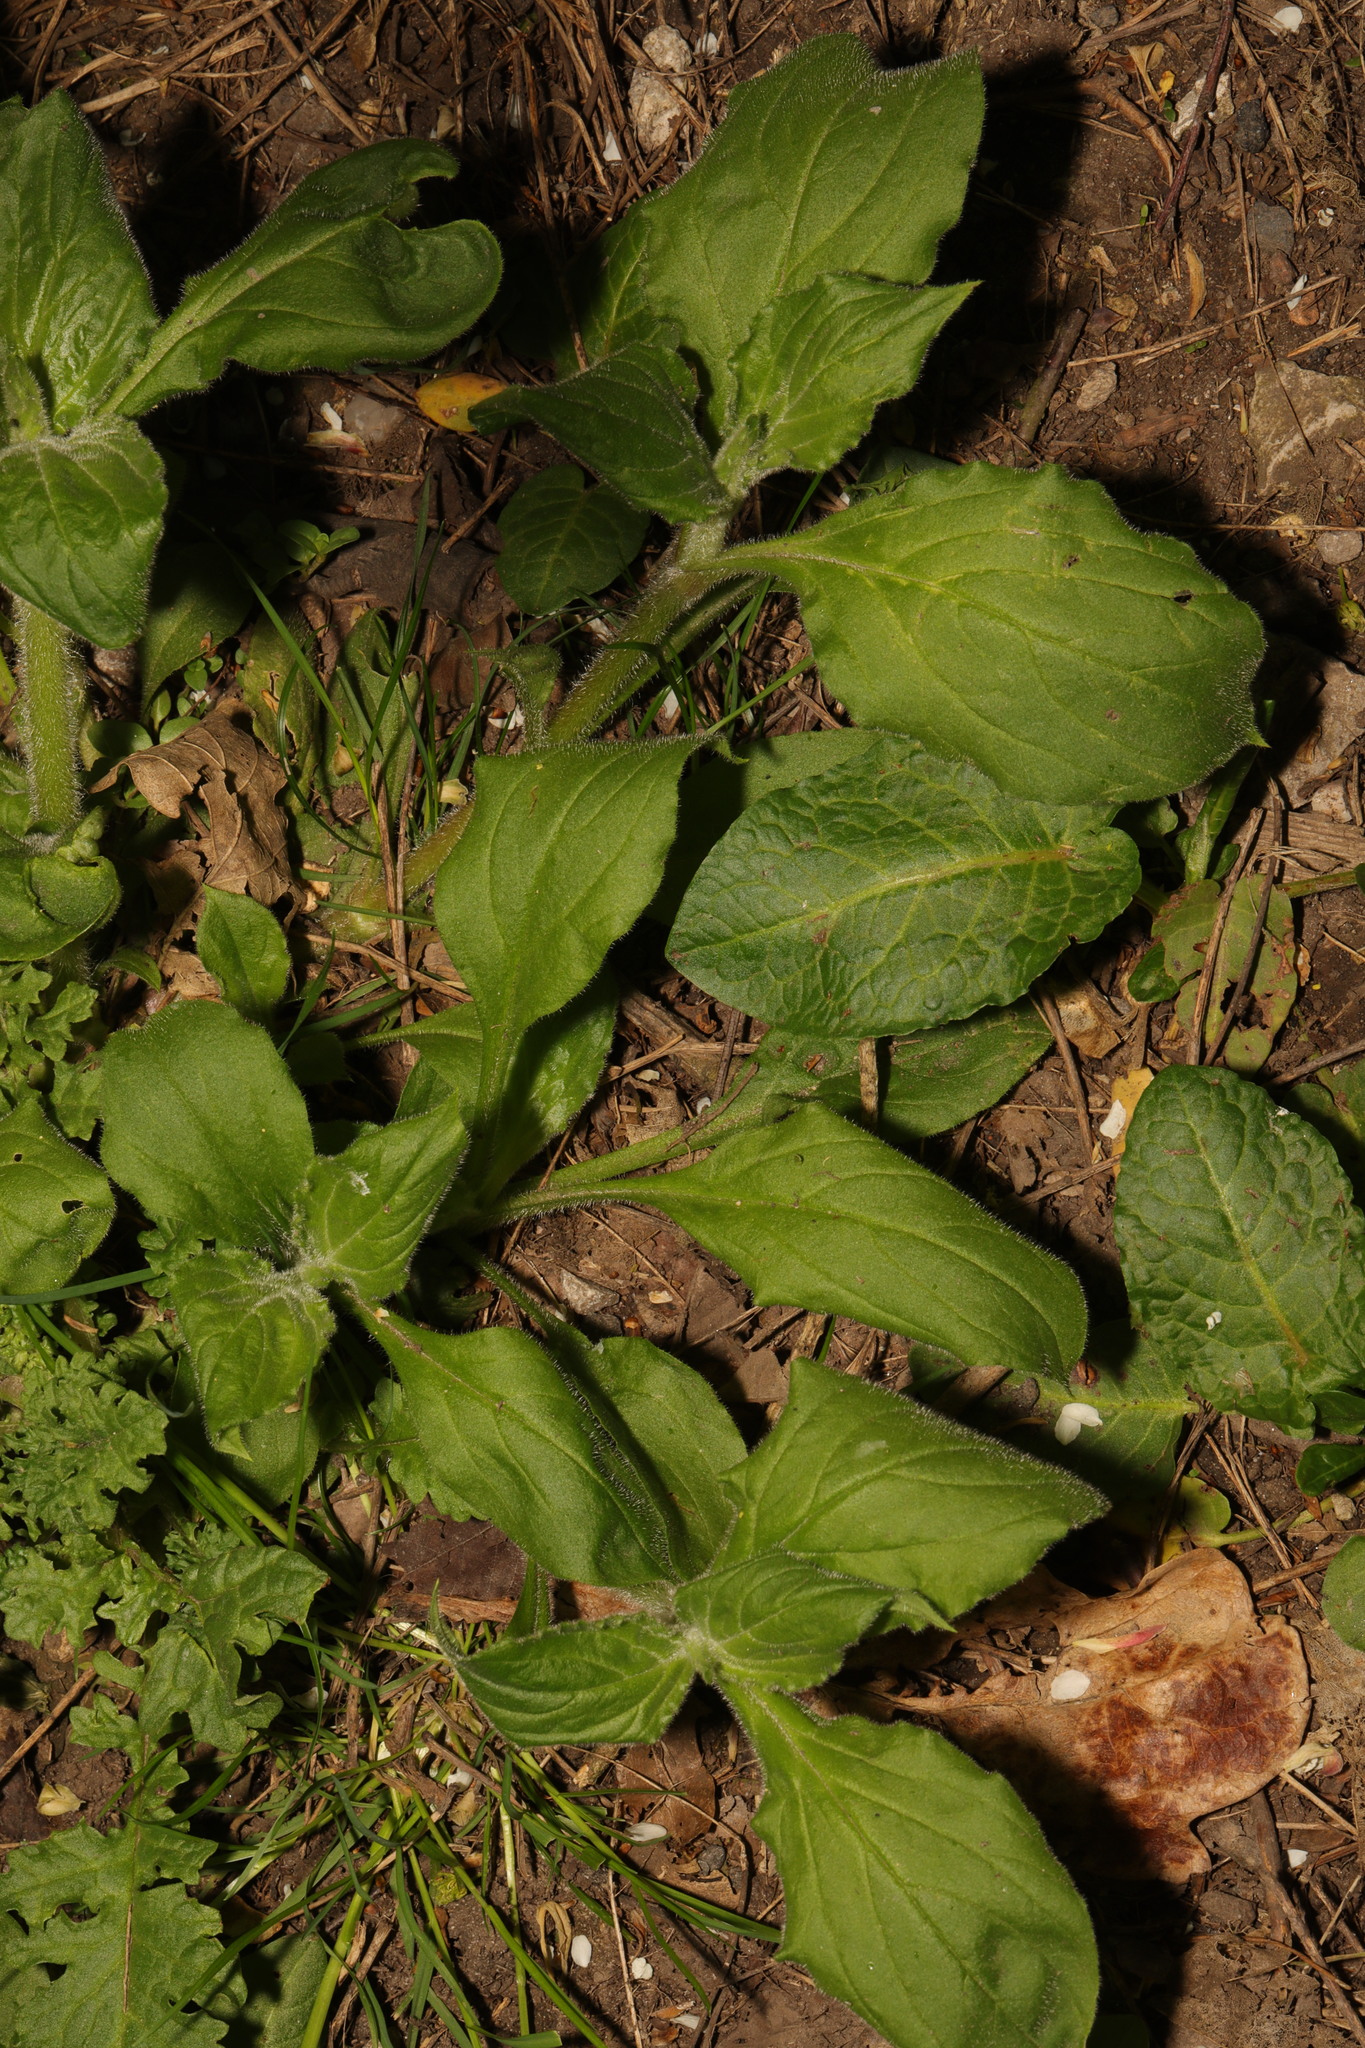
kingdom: Plantae
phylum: Tracheophyta
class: Magnoliopsida
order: Caryophyllales
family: Caryophyllaceae
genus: Silene
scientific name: Silene dioica
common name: Red campion
